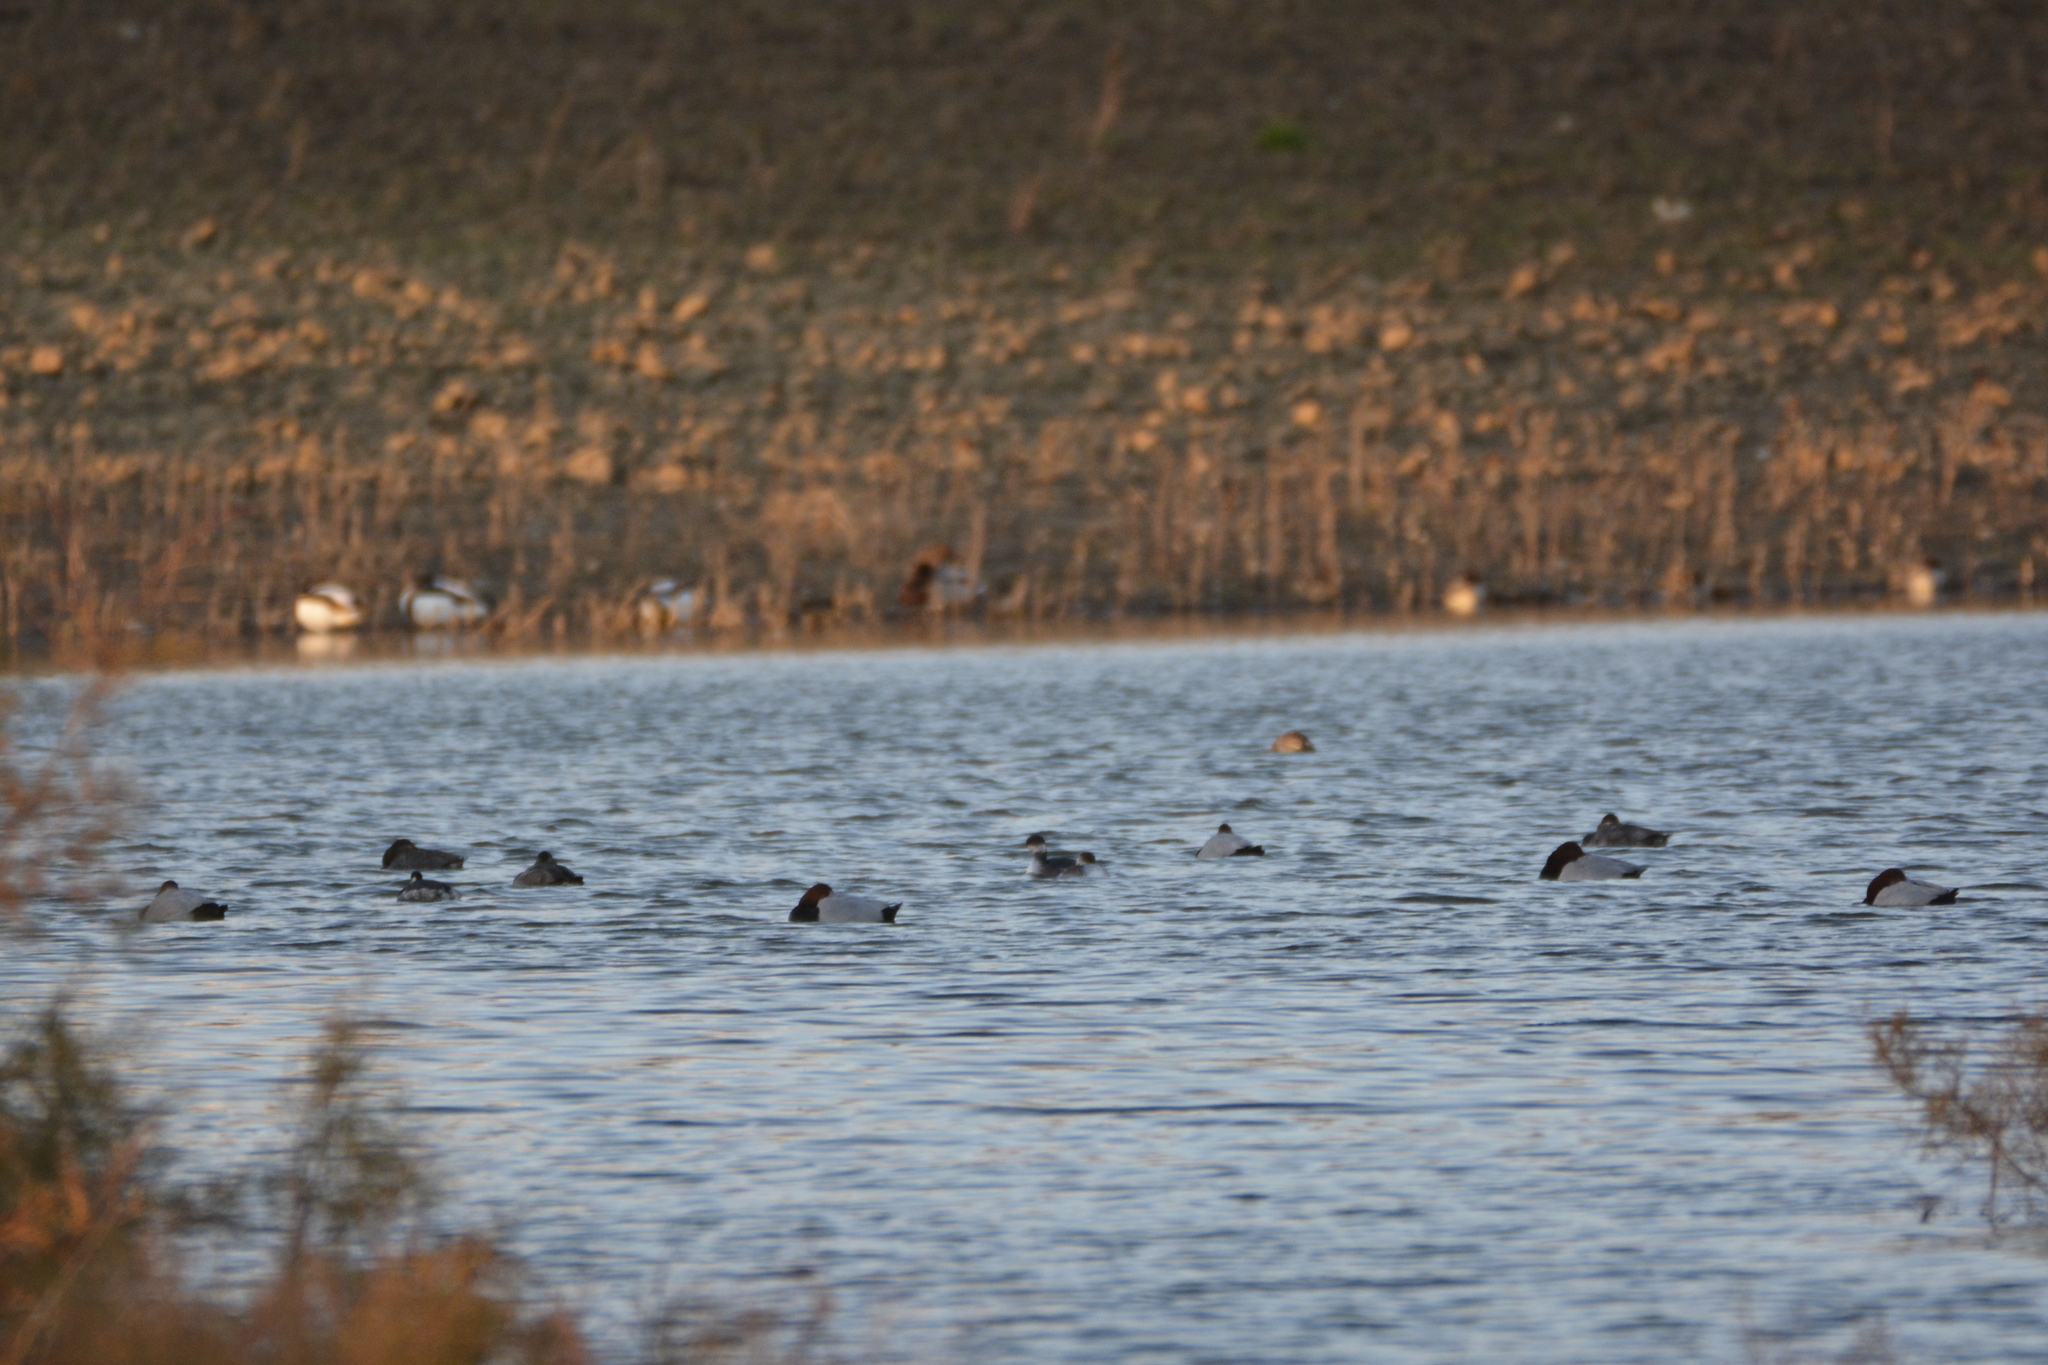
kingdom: Animalia
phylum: Chordata
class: Aves
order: Anseriformes
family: Anatidae
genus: Aythya
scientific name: Aythya ferina
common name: Common pochard
